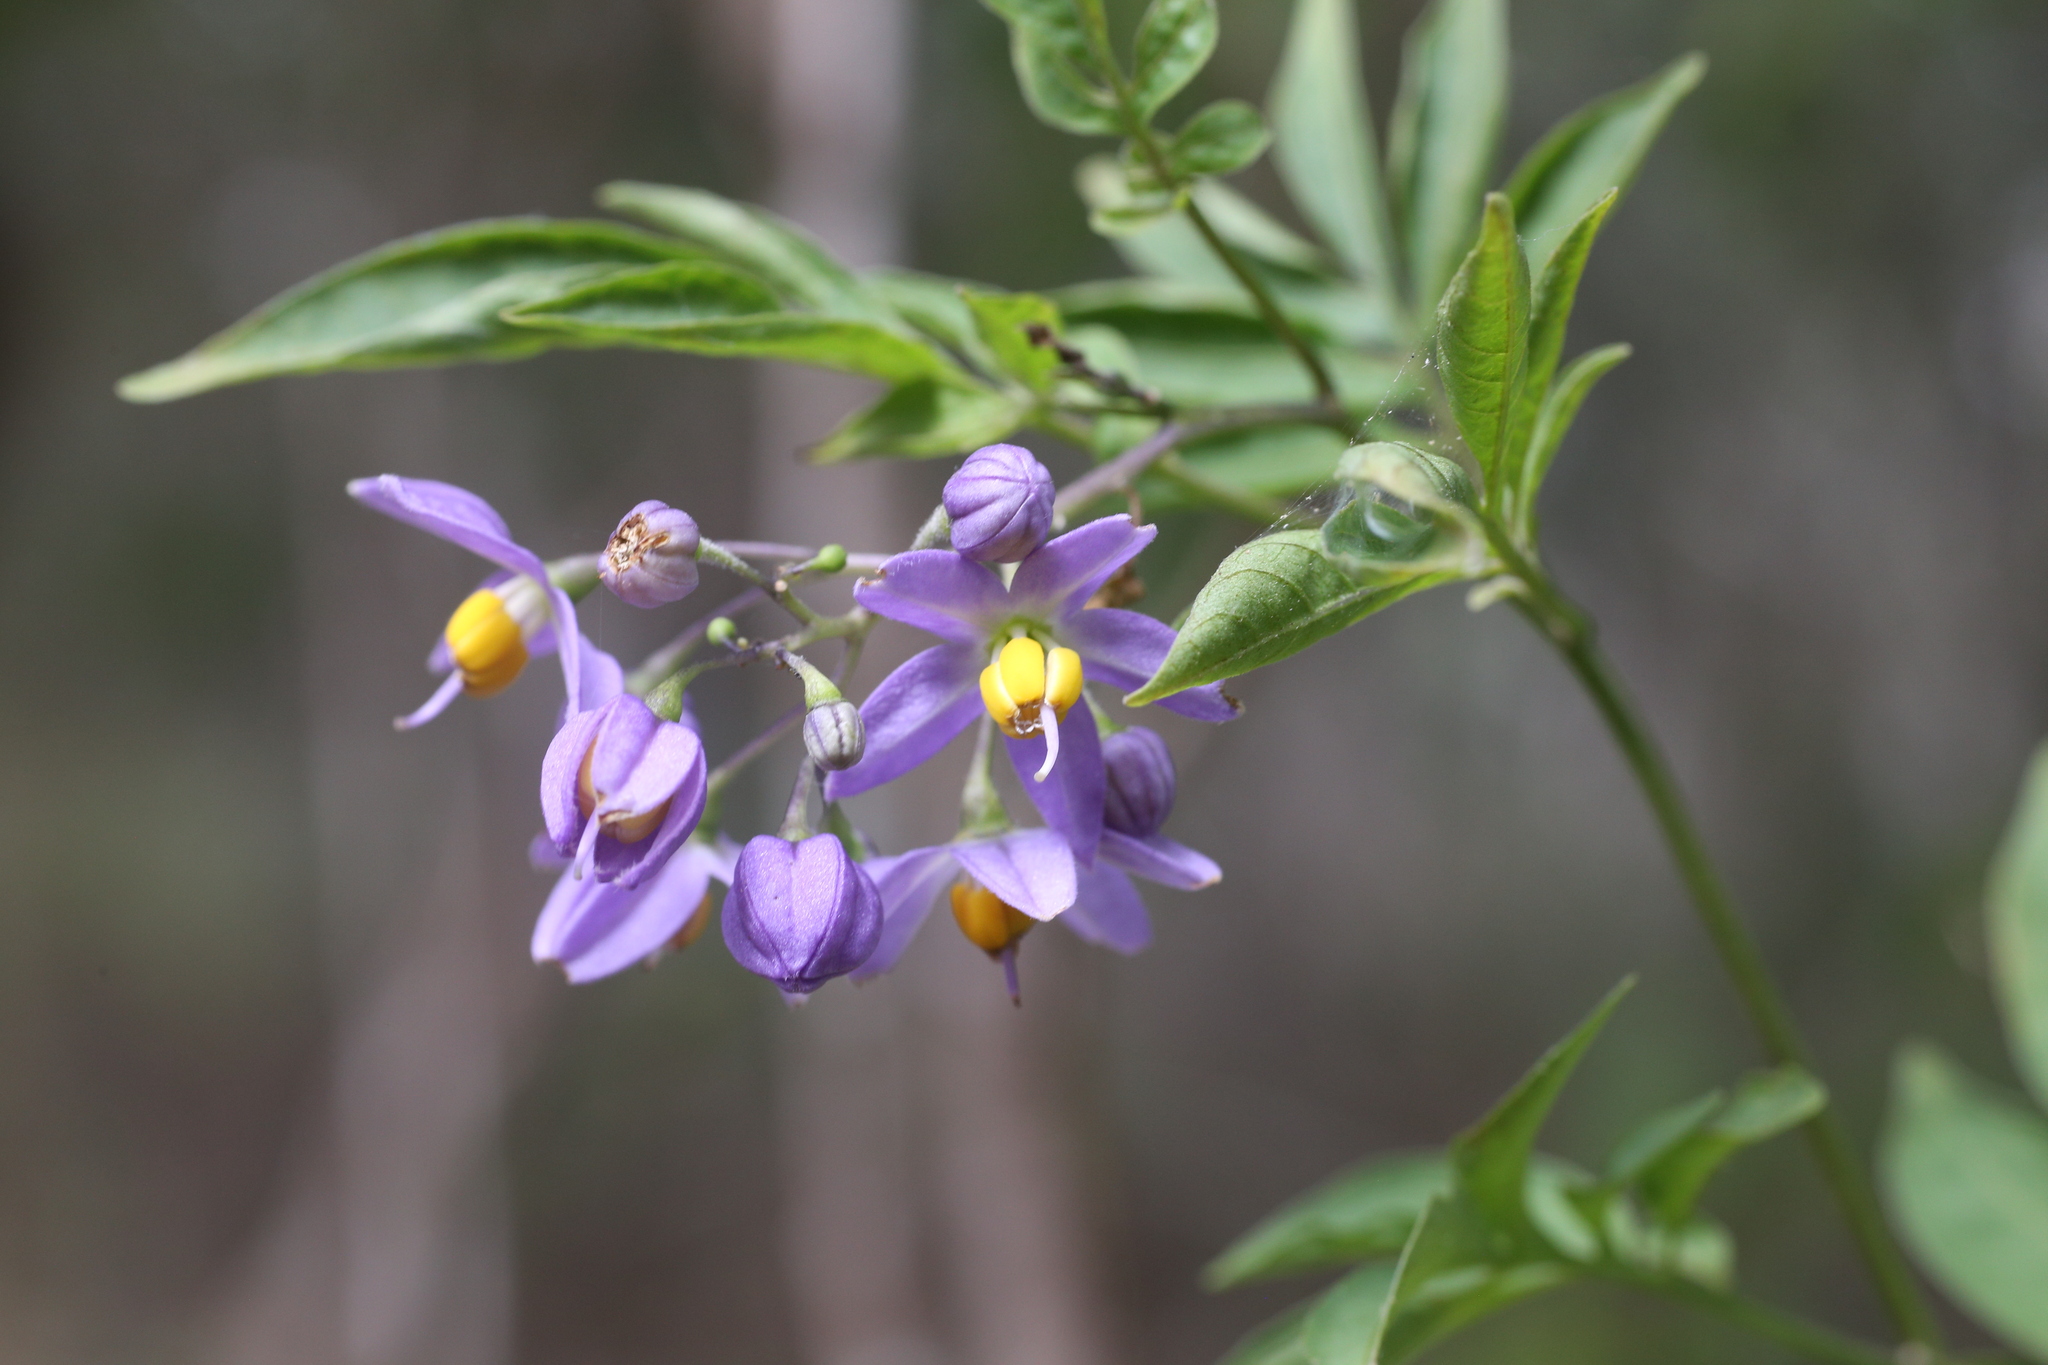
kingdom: Plantae
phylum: Tracheophyta
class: Magnoliopsida
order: Solanales
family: Solanaceae
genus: Solanum
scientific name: Solanum seaforthianum
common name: Brazilian nightshade
